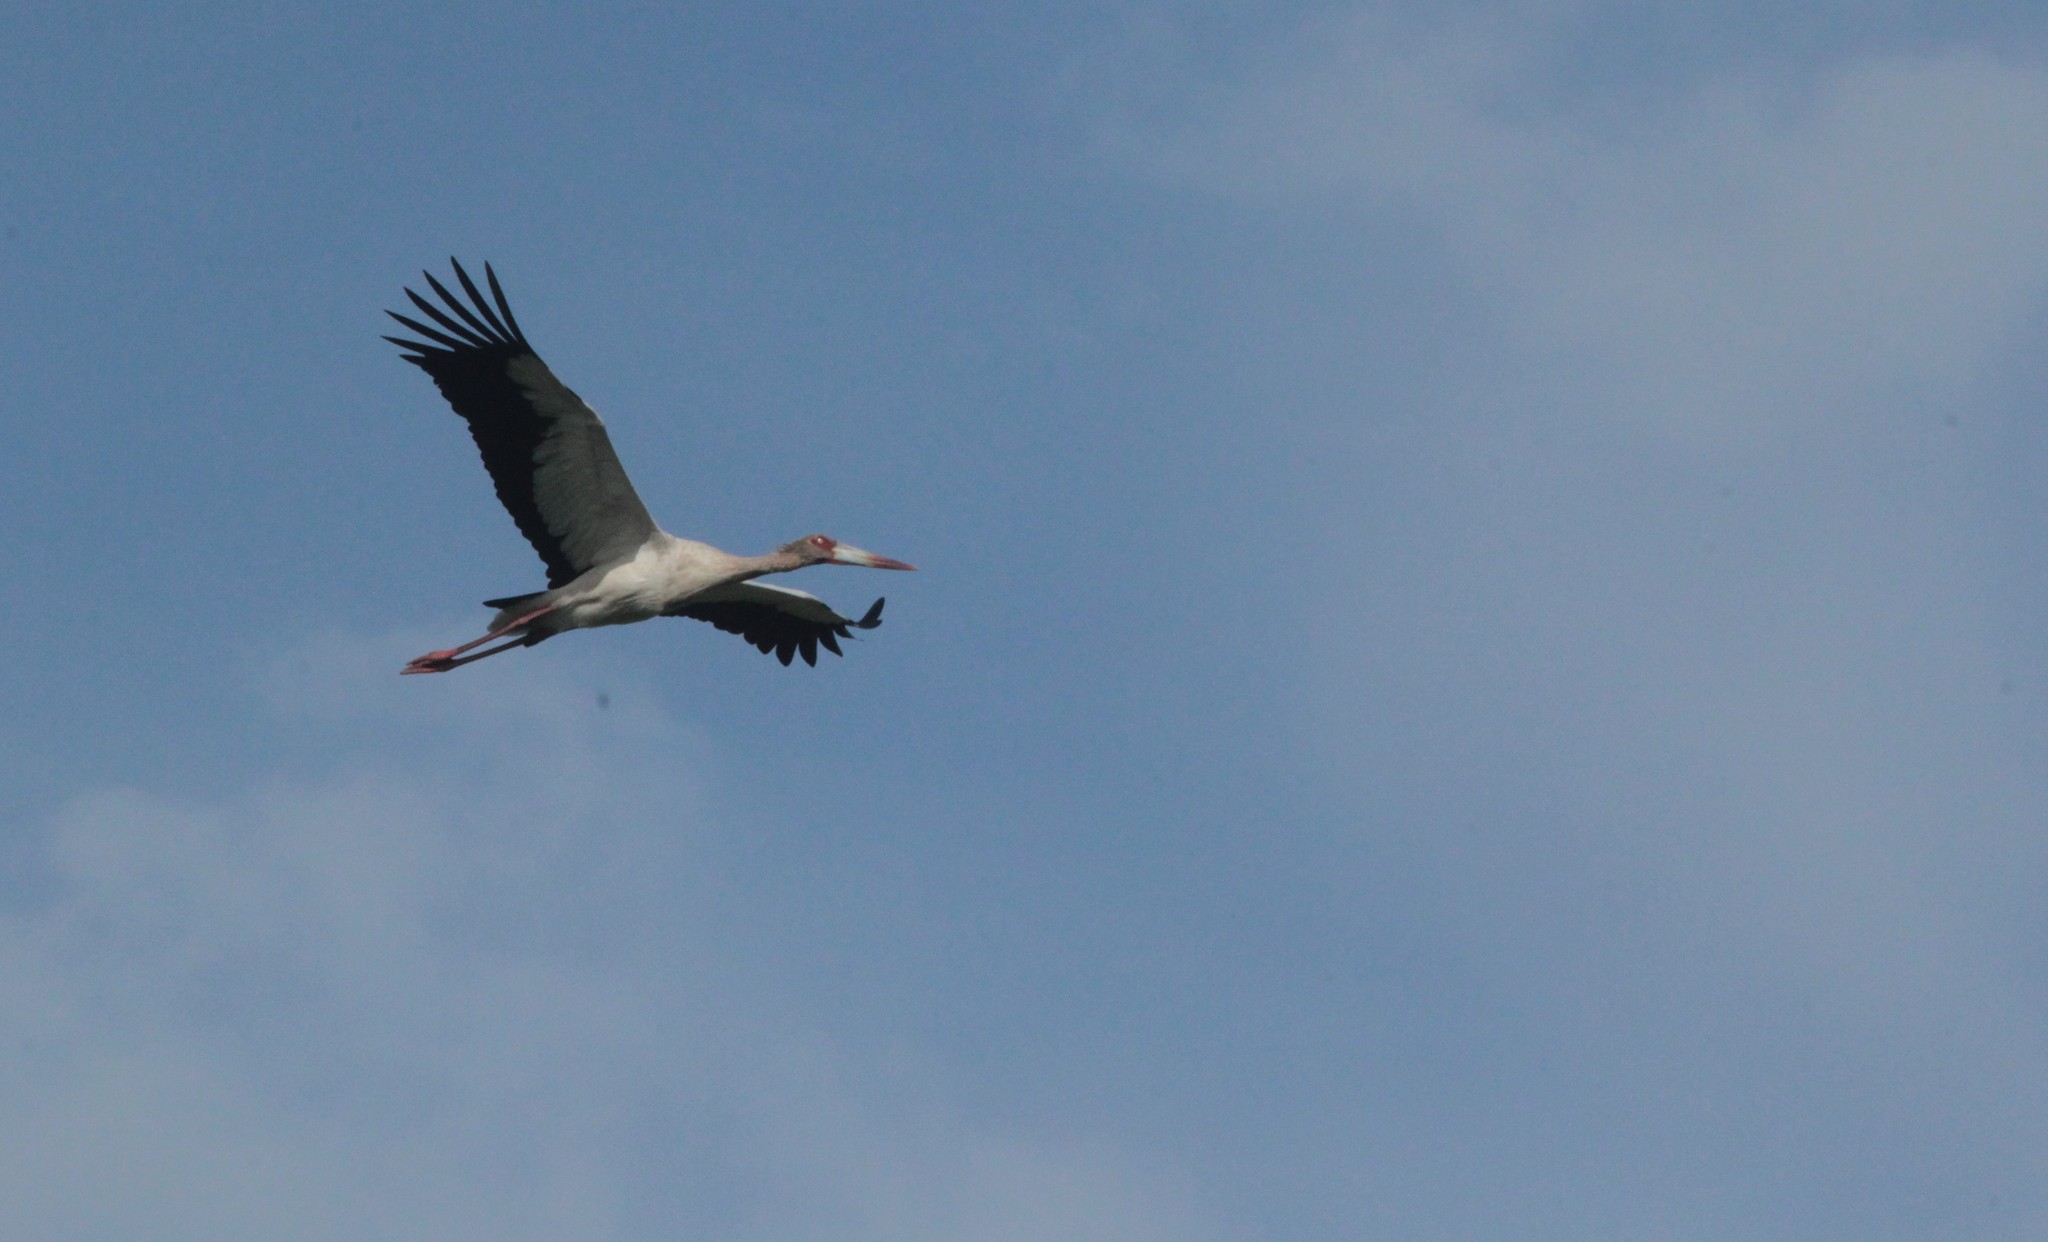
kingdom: Animalia
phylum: Chordata
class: Aves
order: Ciconiiformes
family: Ciconiidae
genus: Ciconia
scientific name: Ciconia maguari
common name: Maguari stork
